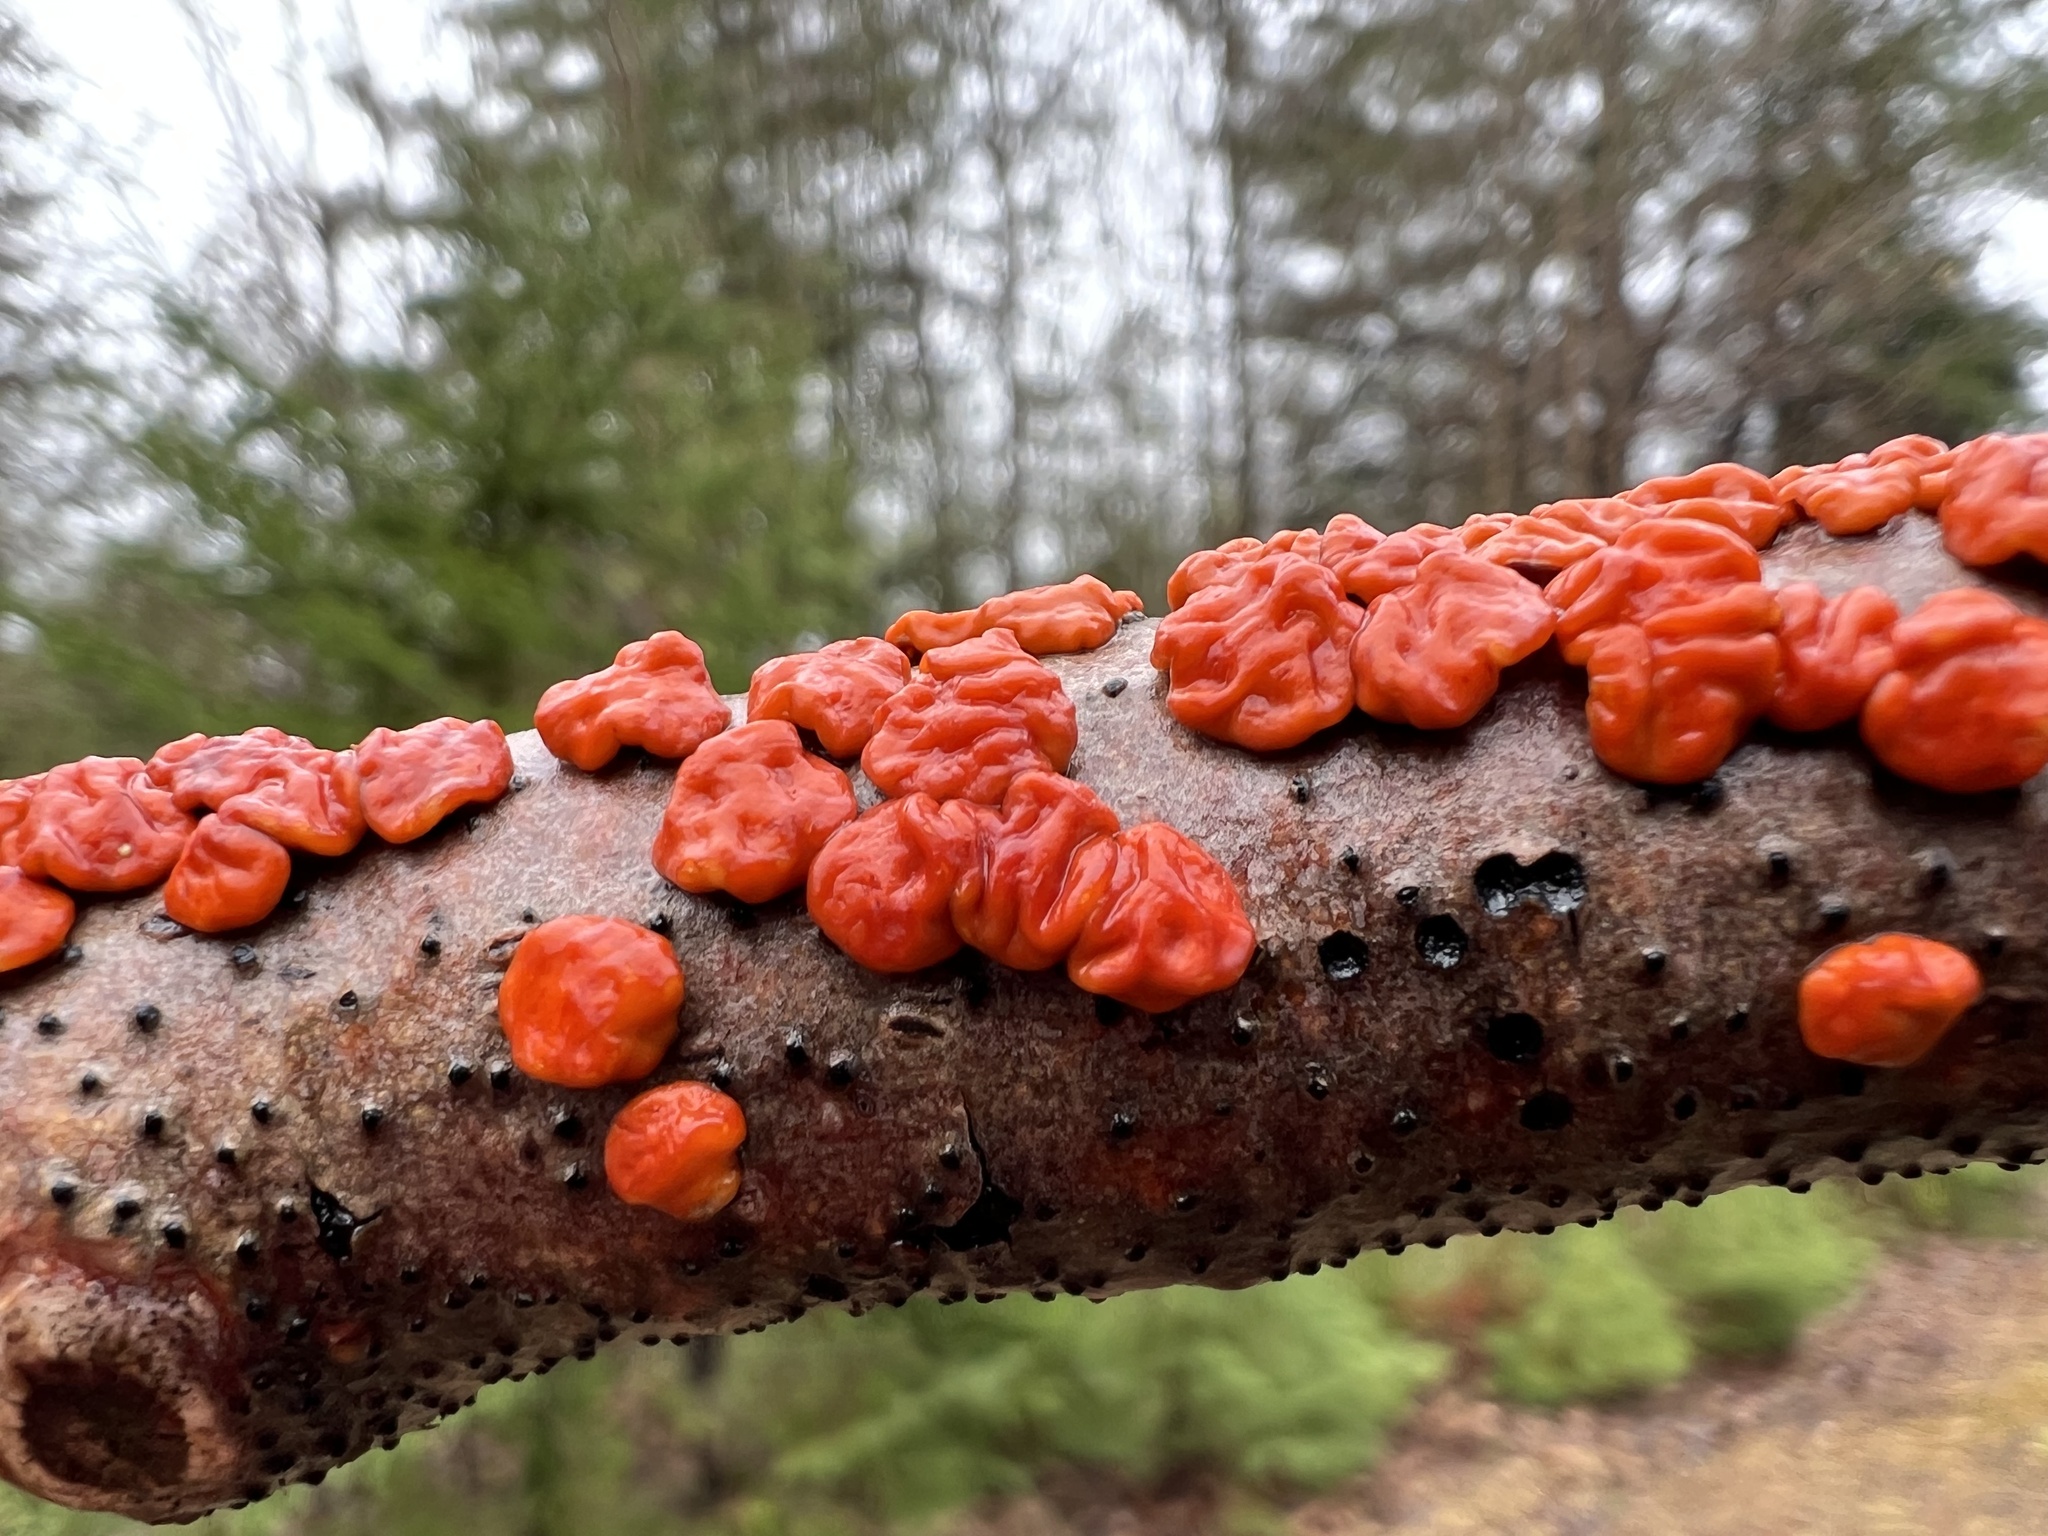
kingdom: Fungi
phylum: Basidiomycota
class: Agaricomycetes
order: Russulales
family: Peniophoraceae
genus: Peniophora
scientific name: Peniophora rufa
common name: Red tree brain fungus
